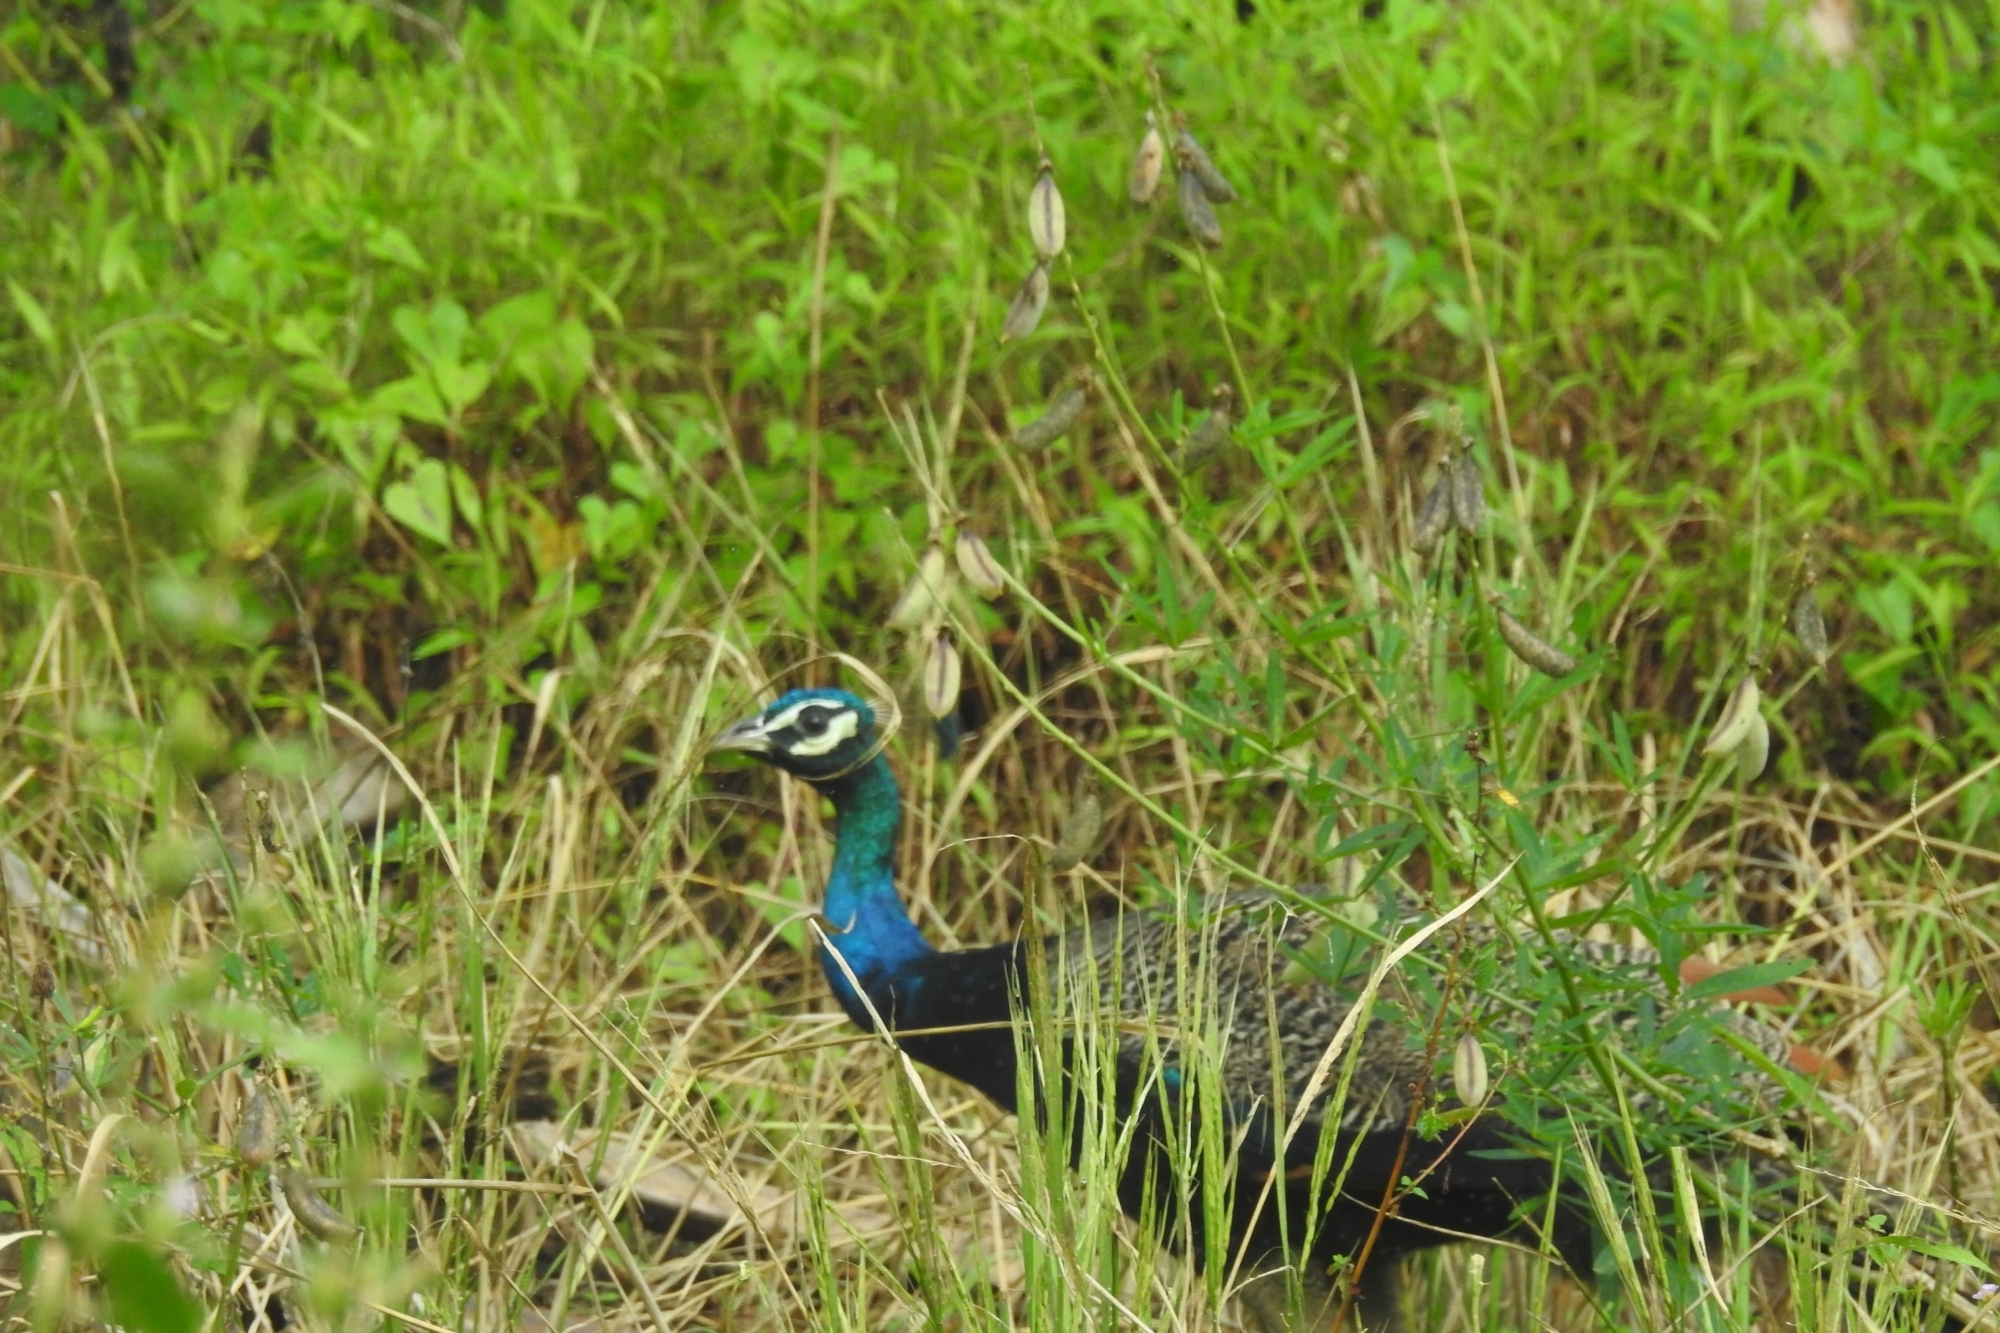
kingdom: Animalia
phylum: Chordata
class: Aves
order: Galliformes
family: Phasianidae
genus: Pavo
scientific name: Pavo cristatus
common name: Indian peafowl
